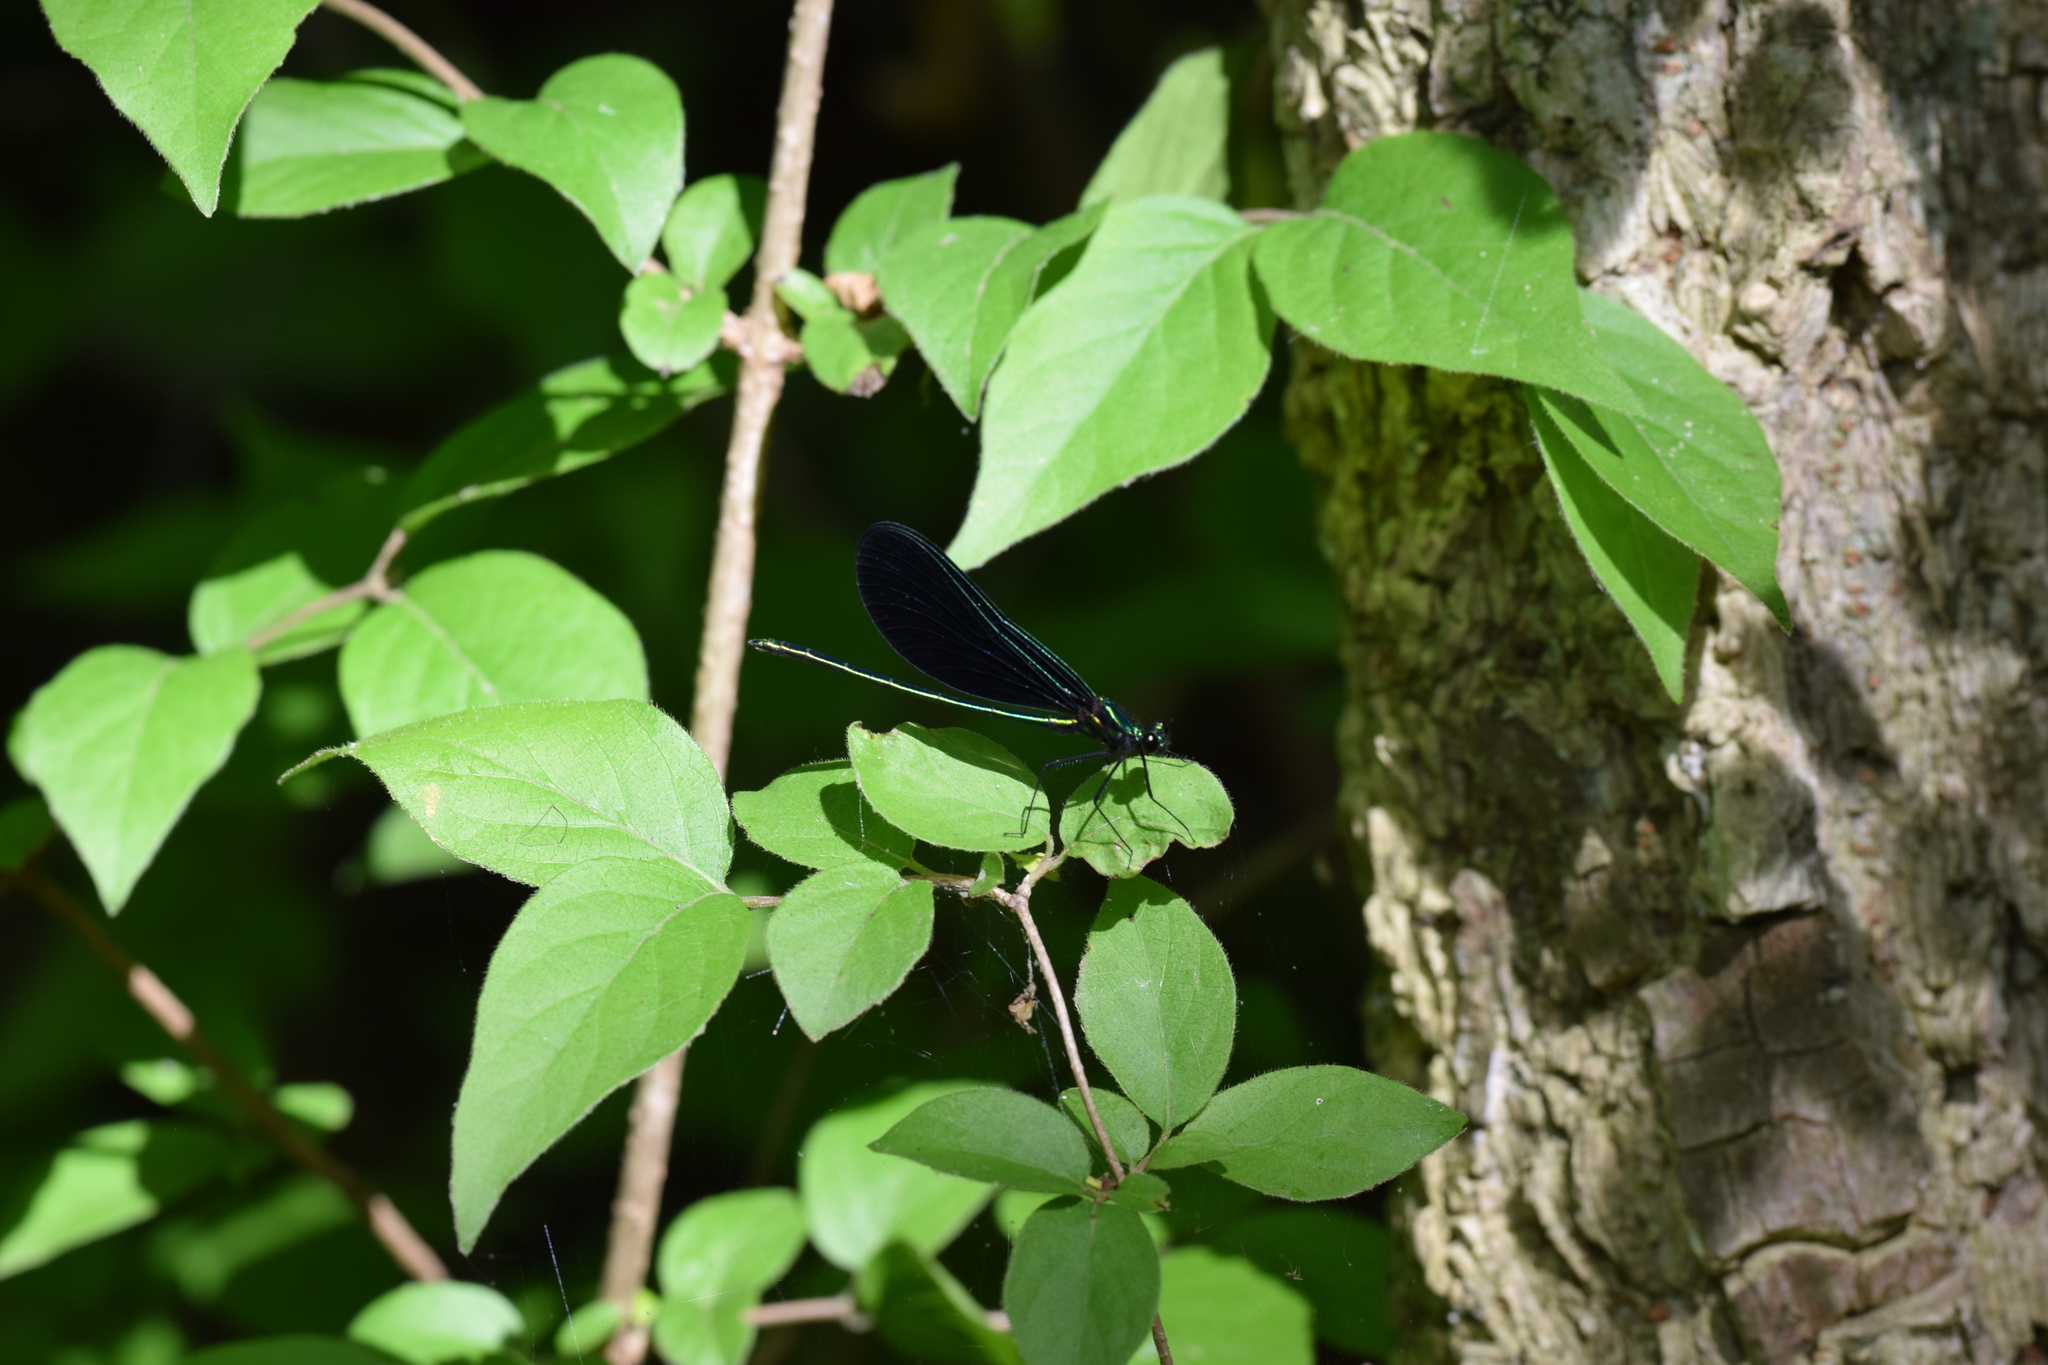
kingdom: Animalia
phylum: Arthropoda
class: Insecta
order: Odonata
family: Calopterygidae
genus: Calopteryx
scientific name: Calopteryx maculata
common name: Ebony jewelwing
